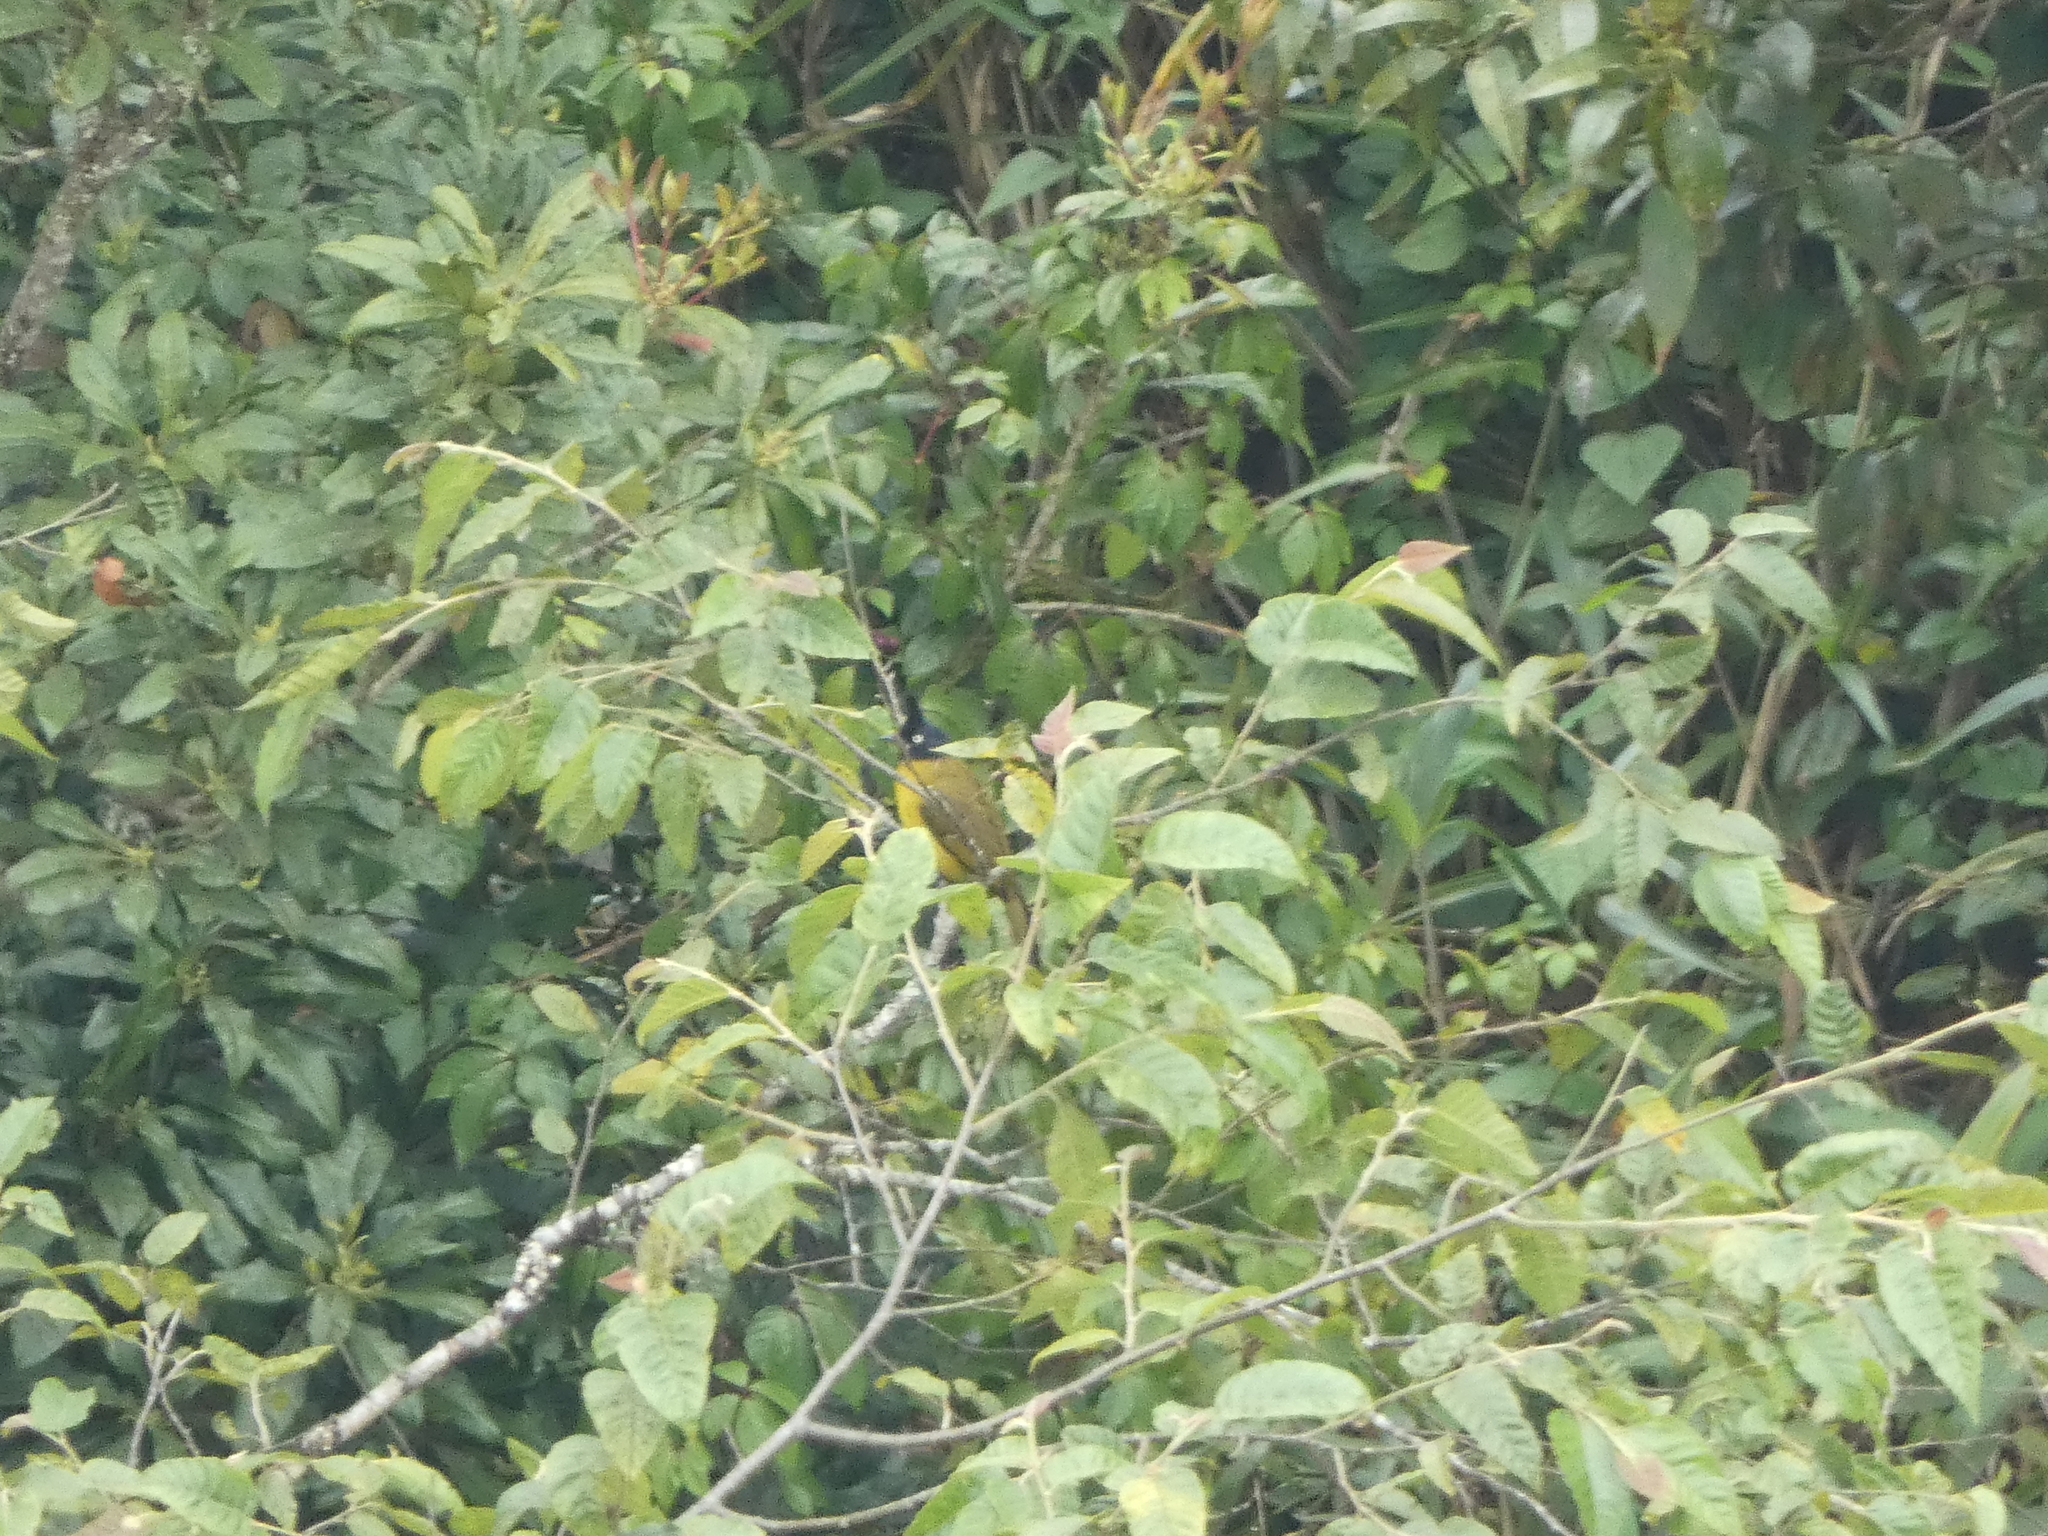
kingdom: Animalia
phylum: Chordata
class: Aves
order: Passeriformes
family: Pycnonotidae
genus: Pycnonotus
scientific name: Pycnonotus flaviventris
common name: Black-crested bulbul
